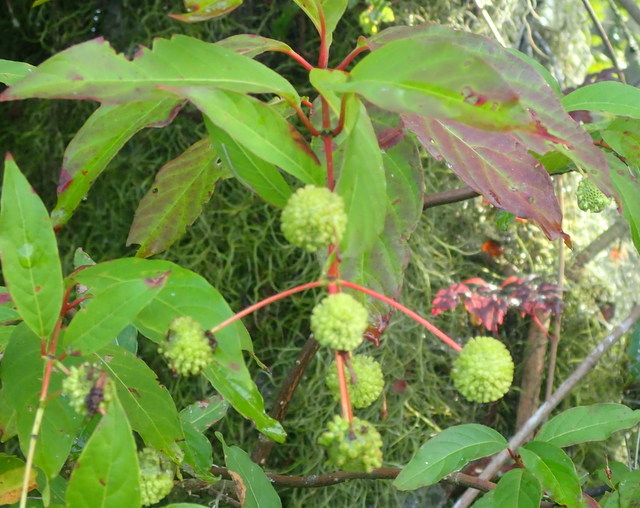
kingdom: Plantae
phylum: Tracheophyta
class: Magnoliopsida
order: Gentianales
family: Rubiaceae
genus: Cephalanthus
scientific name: Cephalanthus occidentalis
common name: Button-willow
